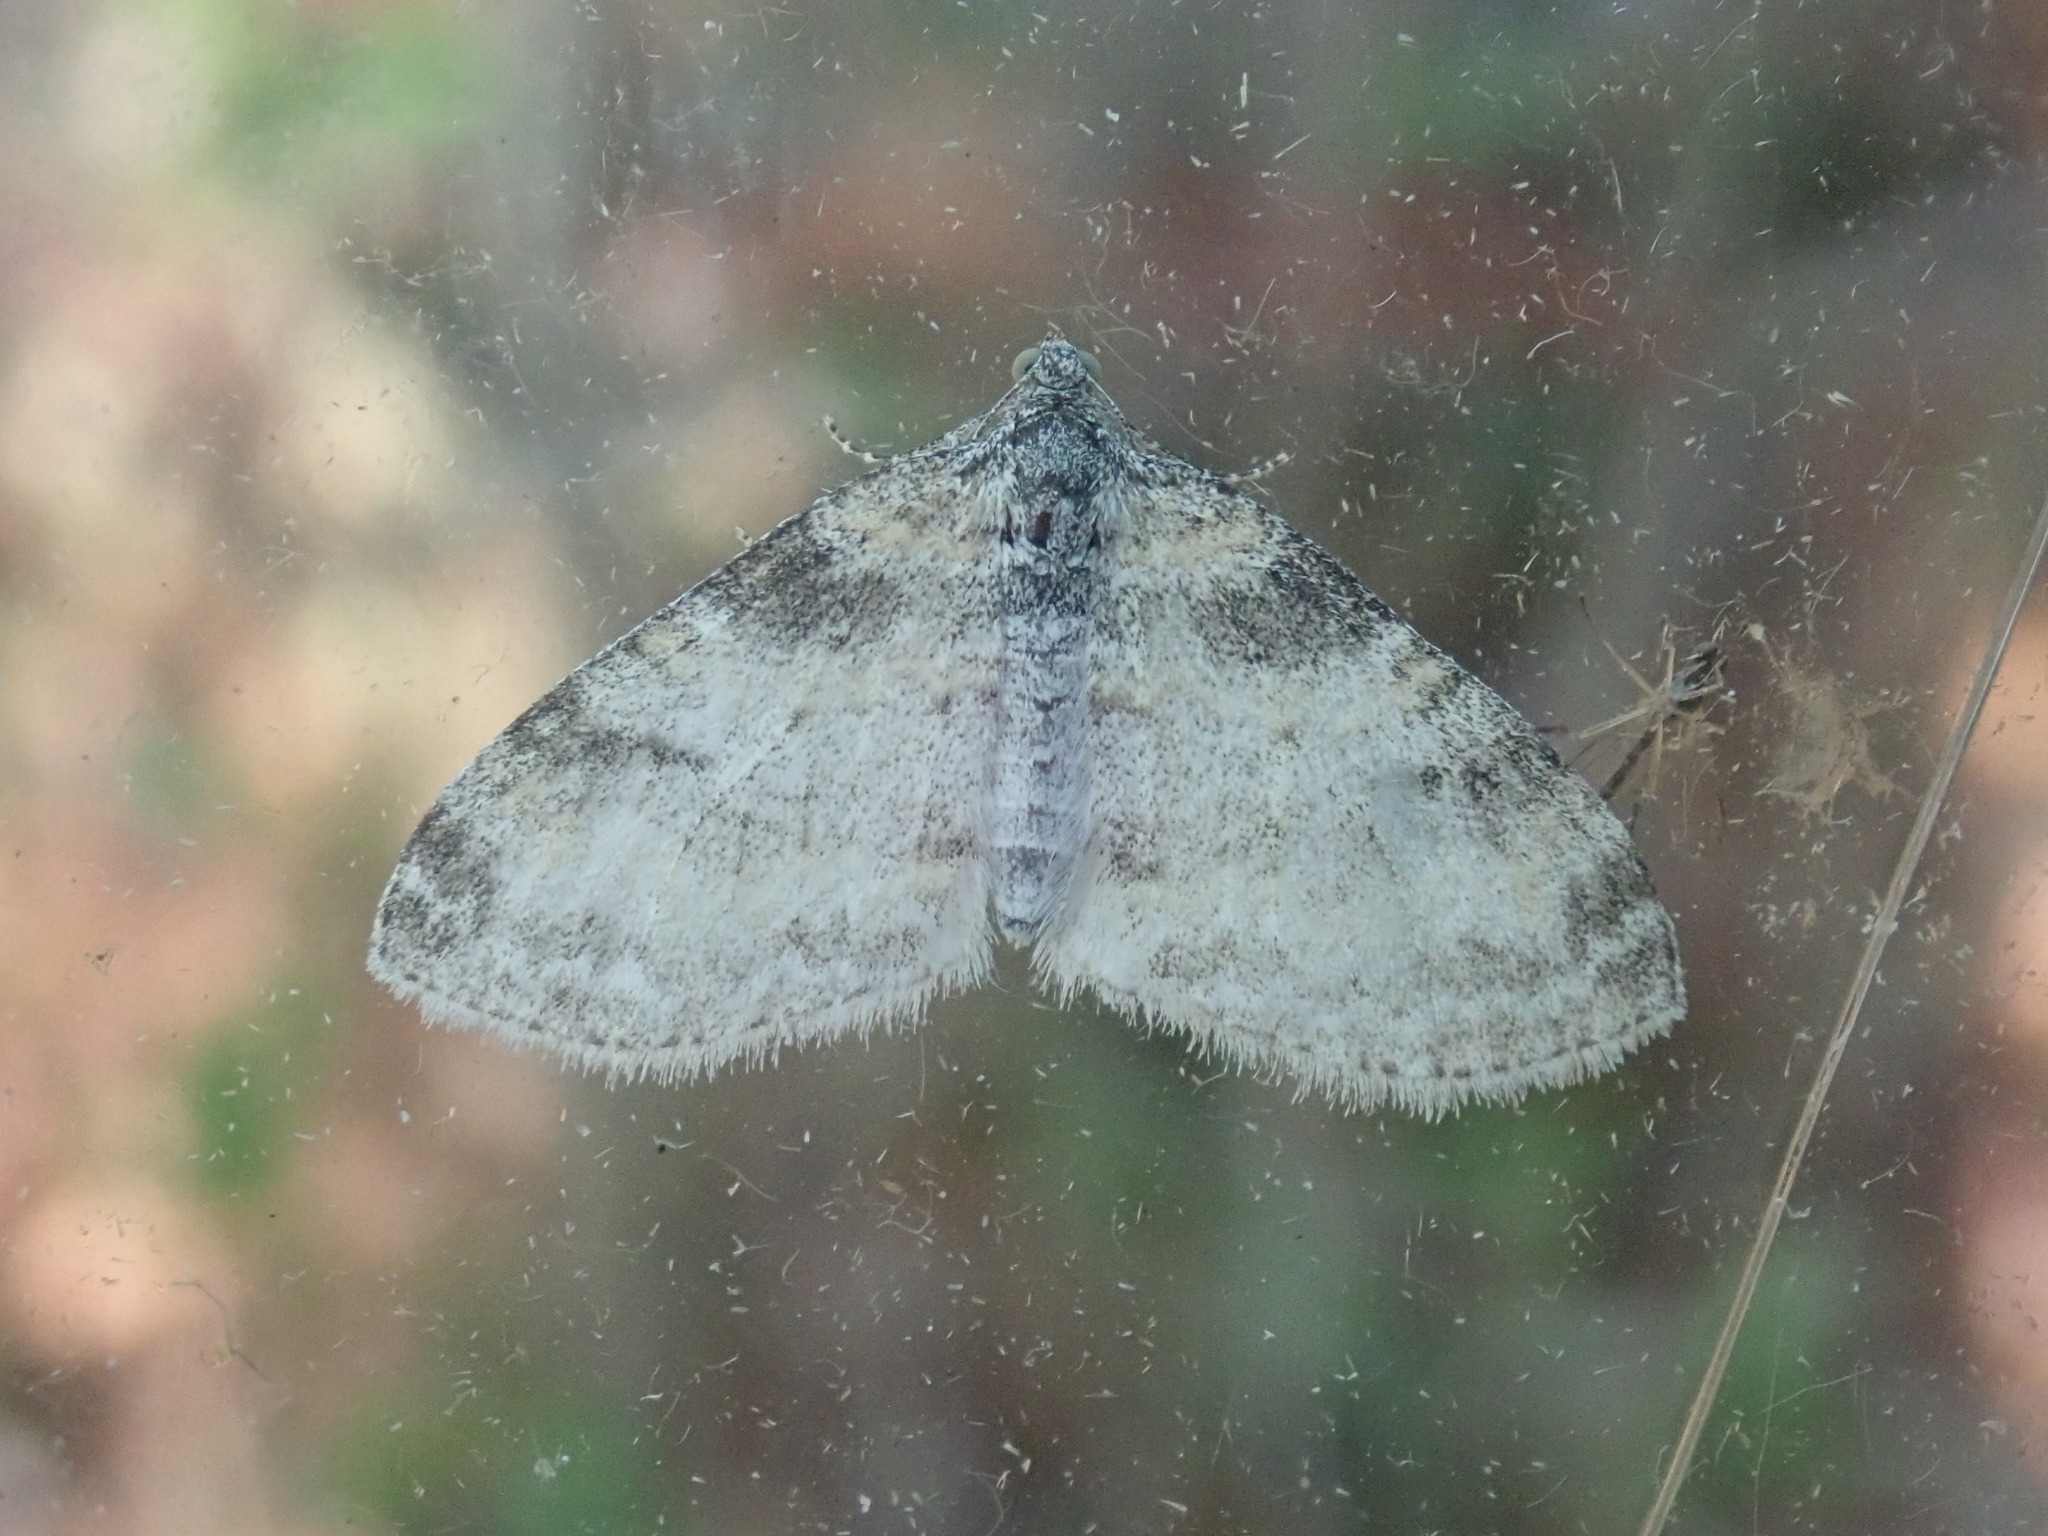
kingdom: Animalia
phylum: Arthropoda
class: Insecta
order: Lepidoptera
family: Geometridae
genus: Lobophora
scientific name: Lobophora nivigerata
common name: Powdered bigwing
